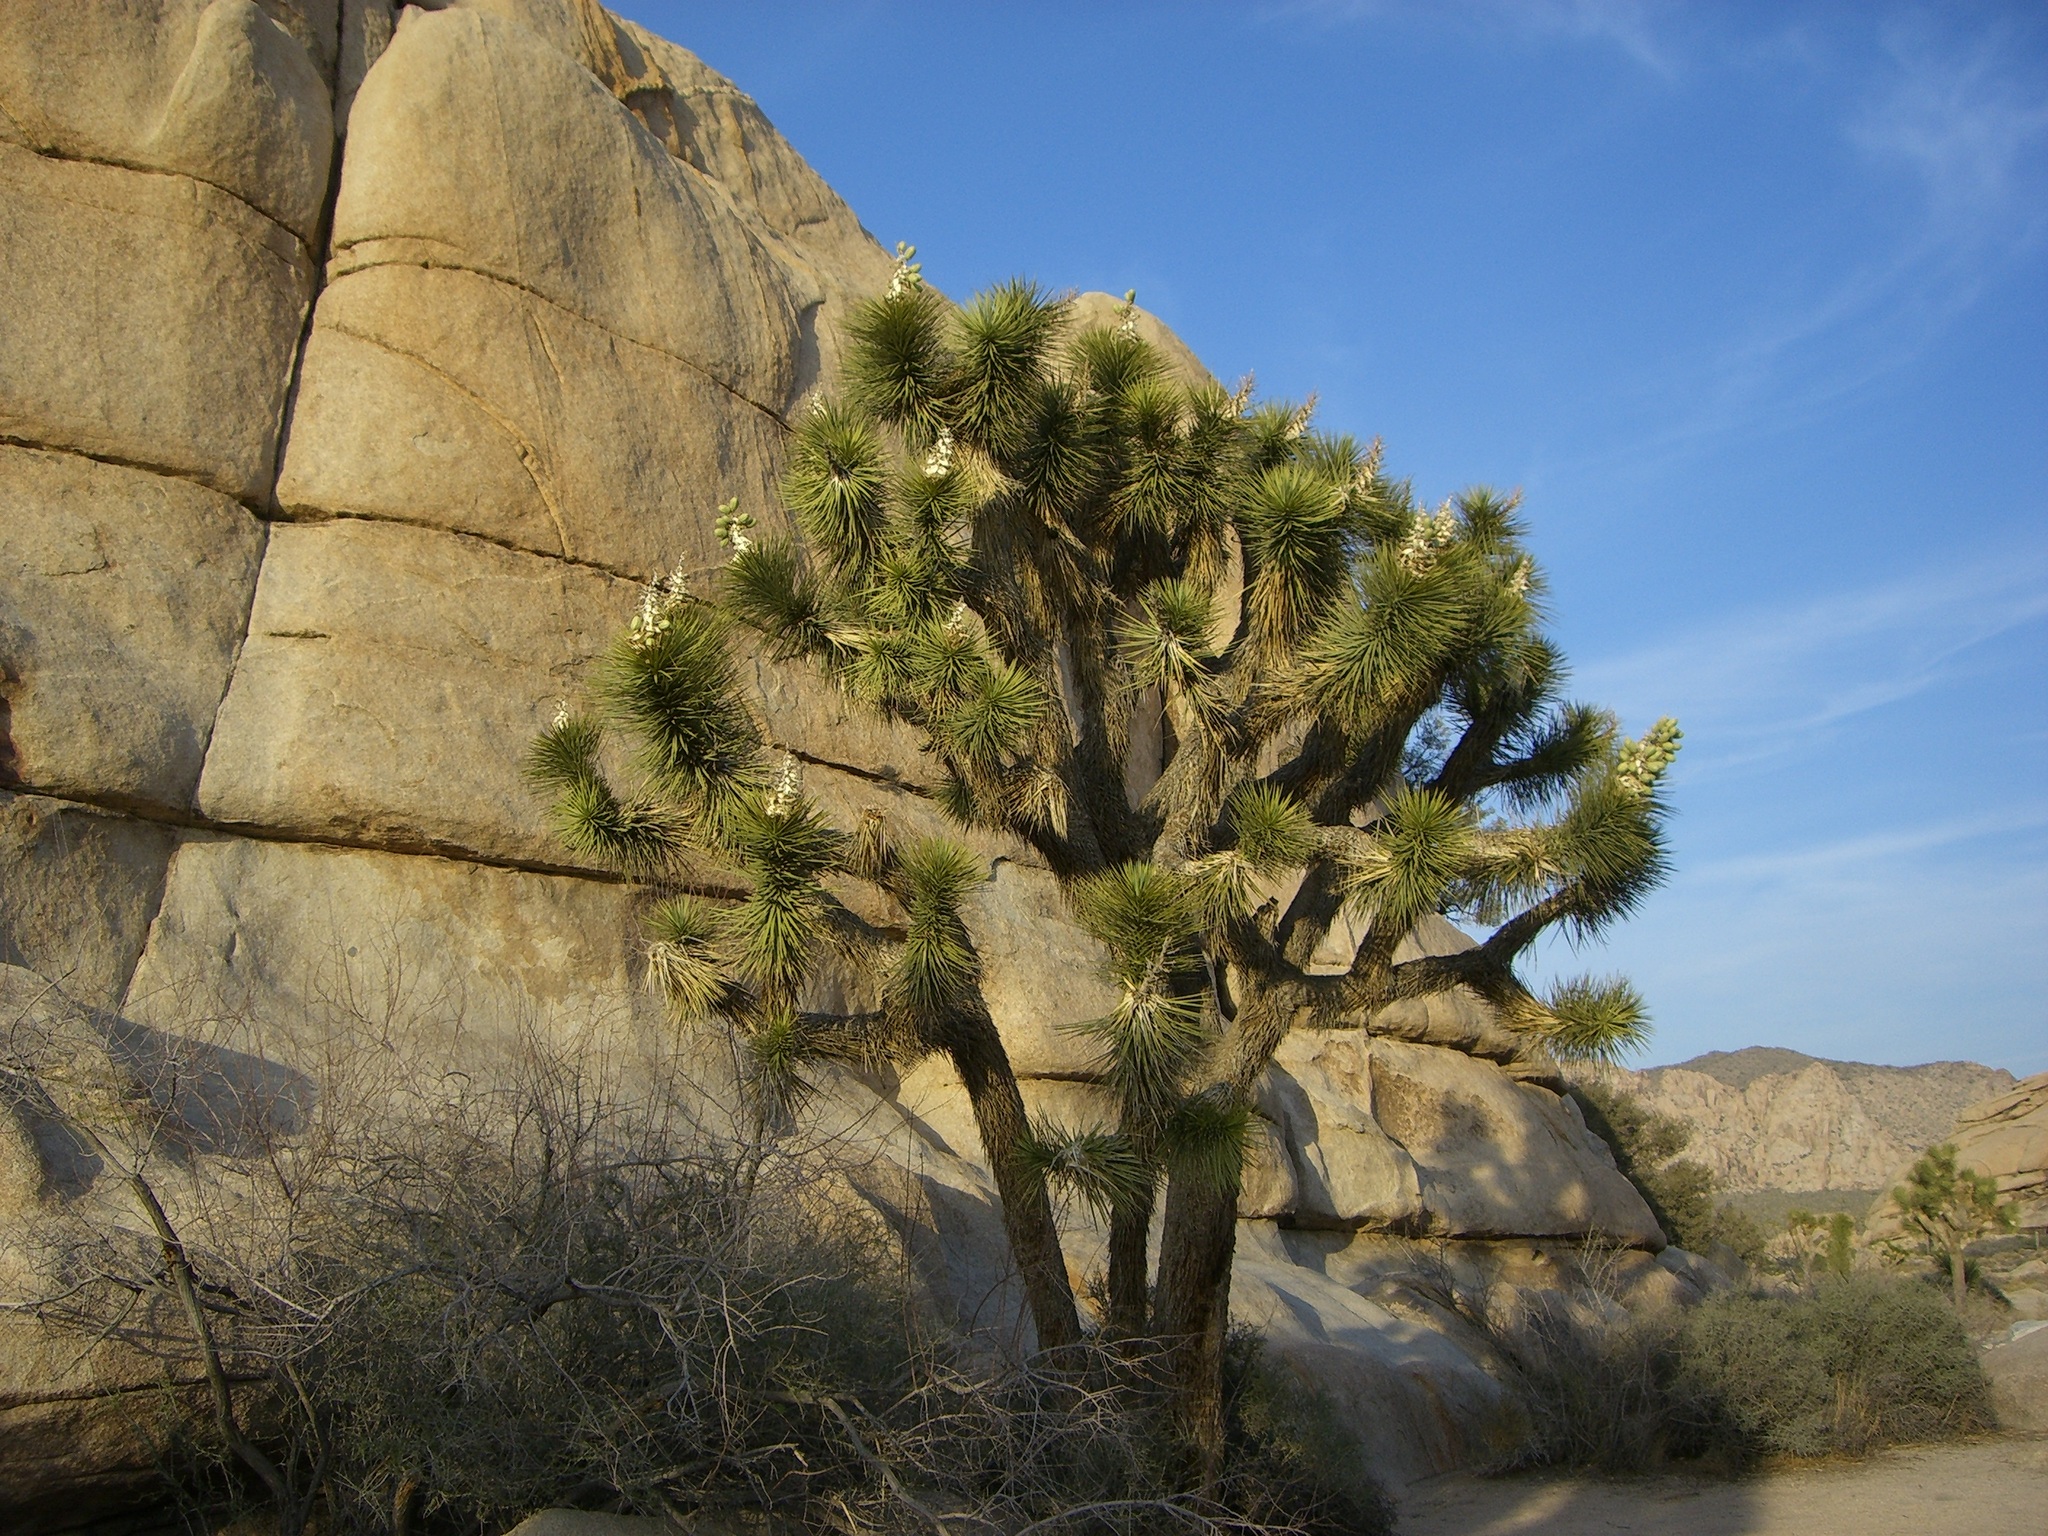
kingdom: Plantae
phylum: Tracheophyta
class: Liliopsida
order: Asparagales
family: Asparagaceae
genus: Yucca
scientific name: Yucca brevifolia
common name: Joshua tree
